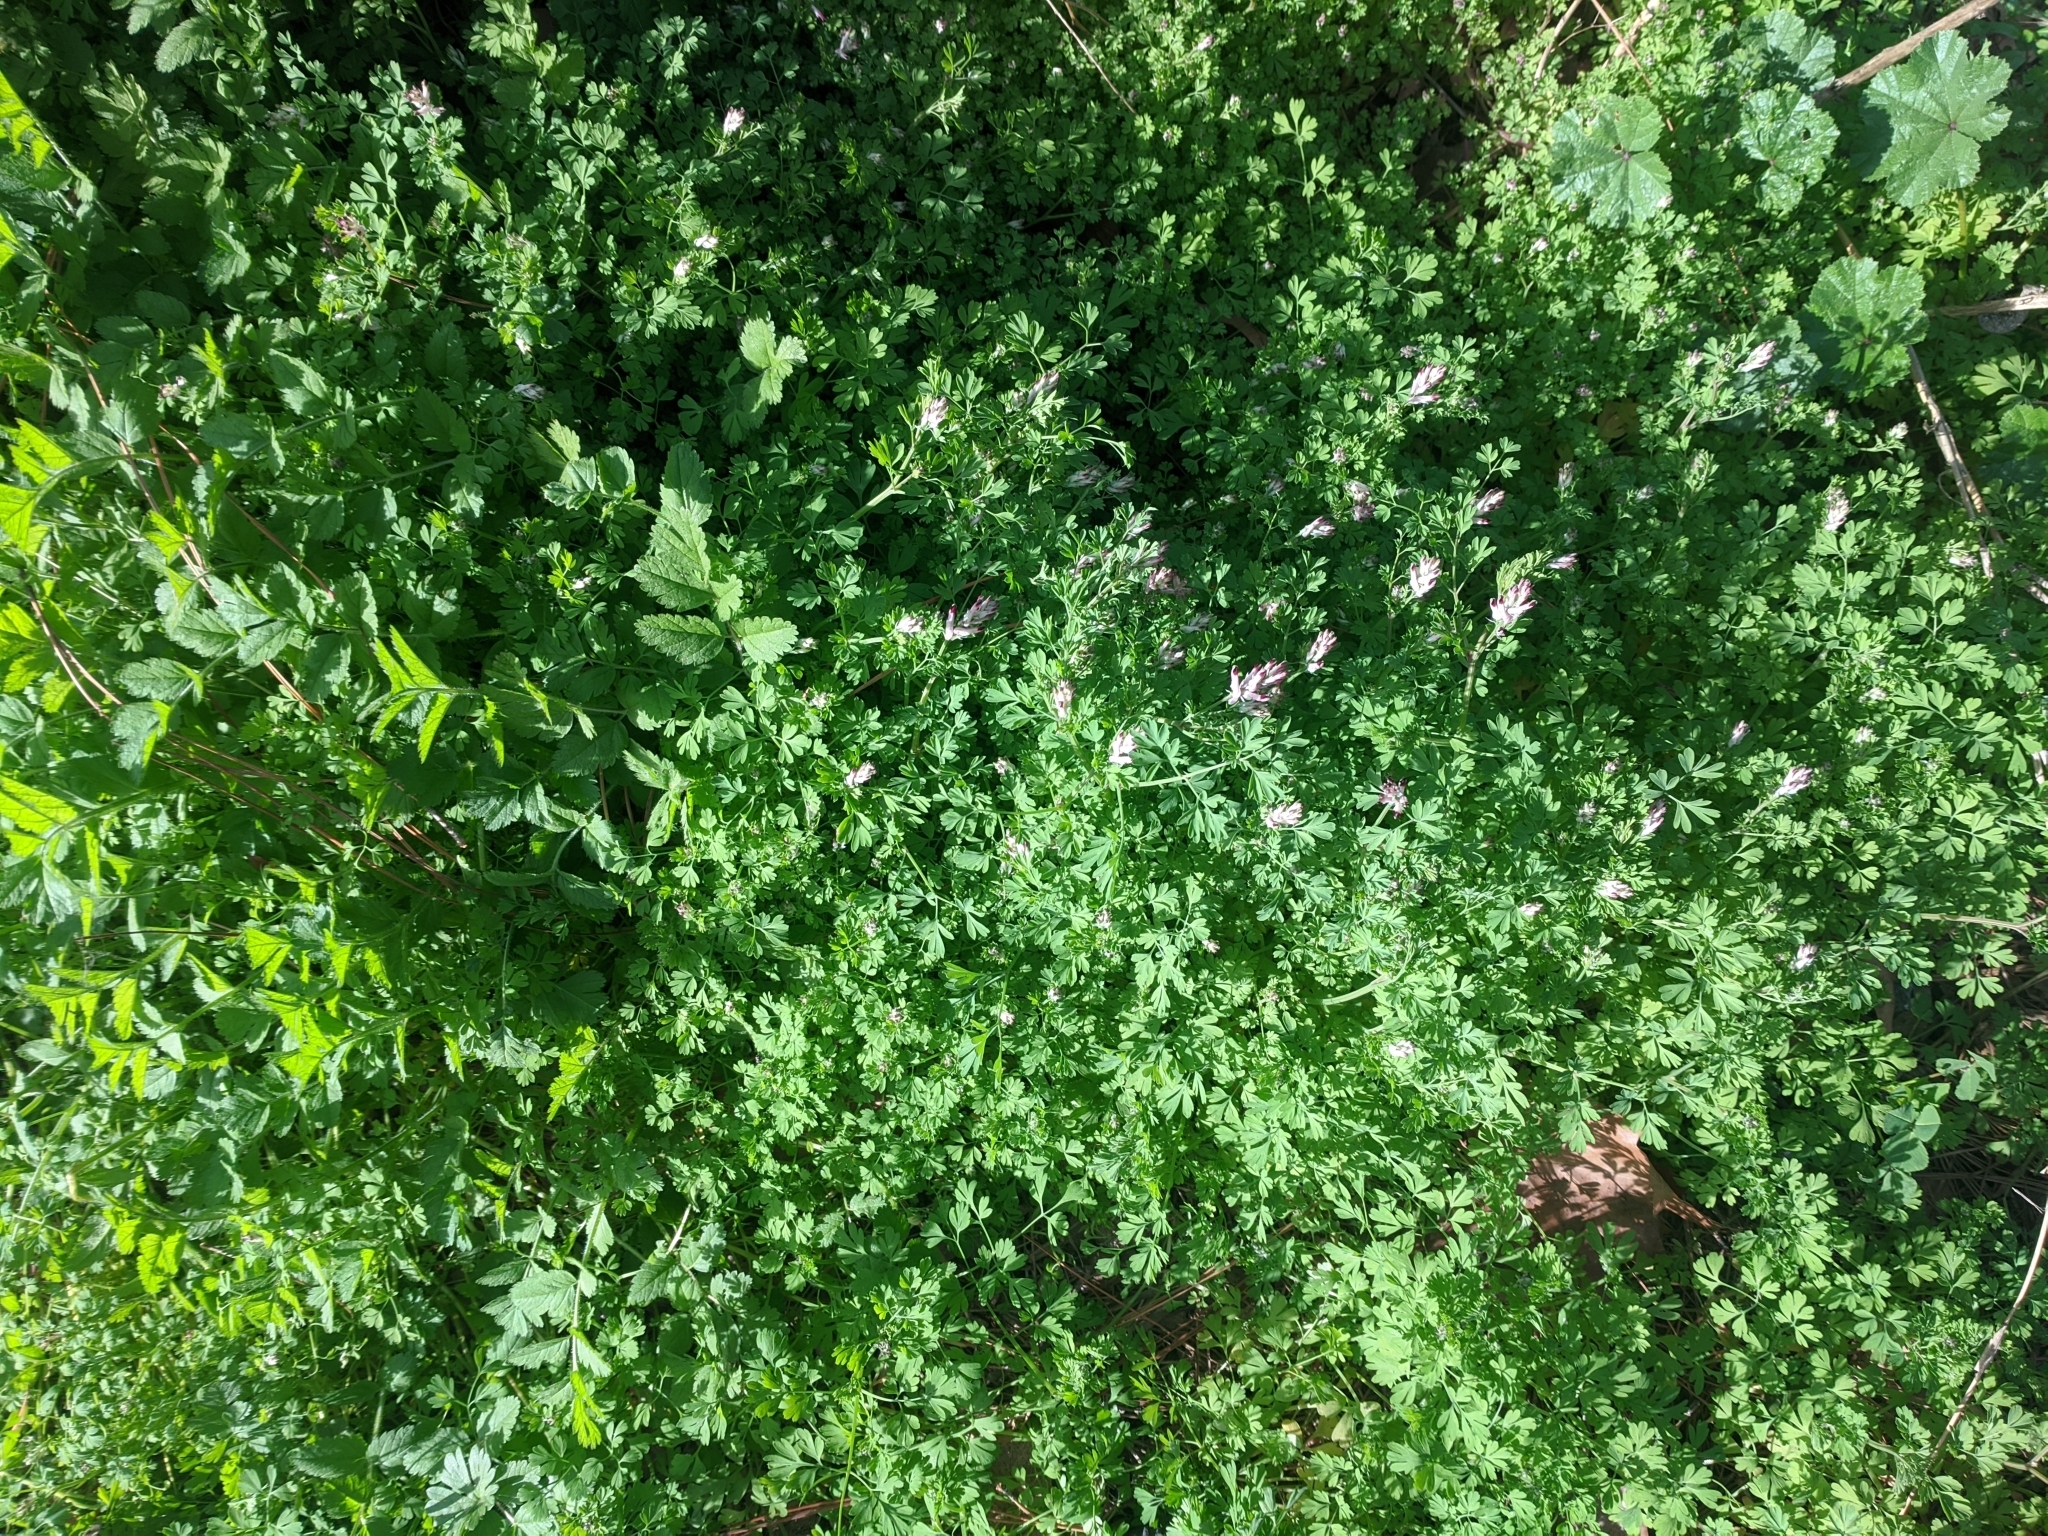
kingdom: Plantae
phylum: Tracheophyta
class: Magnoliopsida
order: Ranunculales
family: Papaveraceae
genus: Fumaria
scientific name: Fumaria muralis
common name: Common ramping-fumitory
